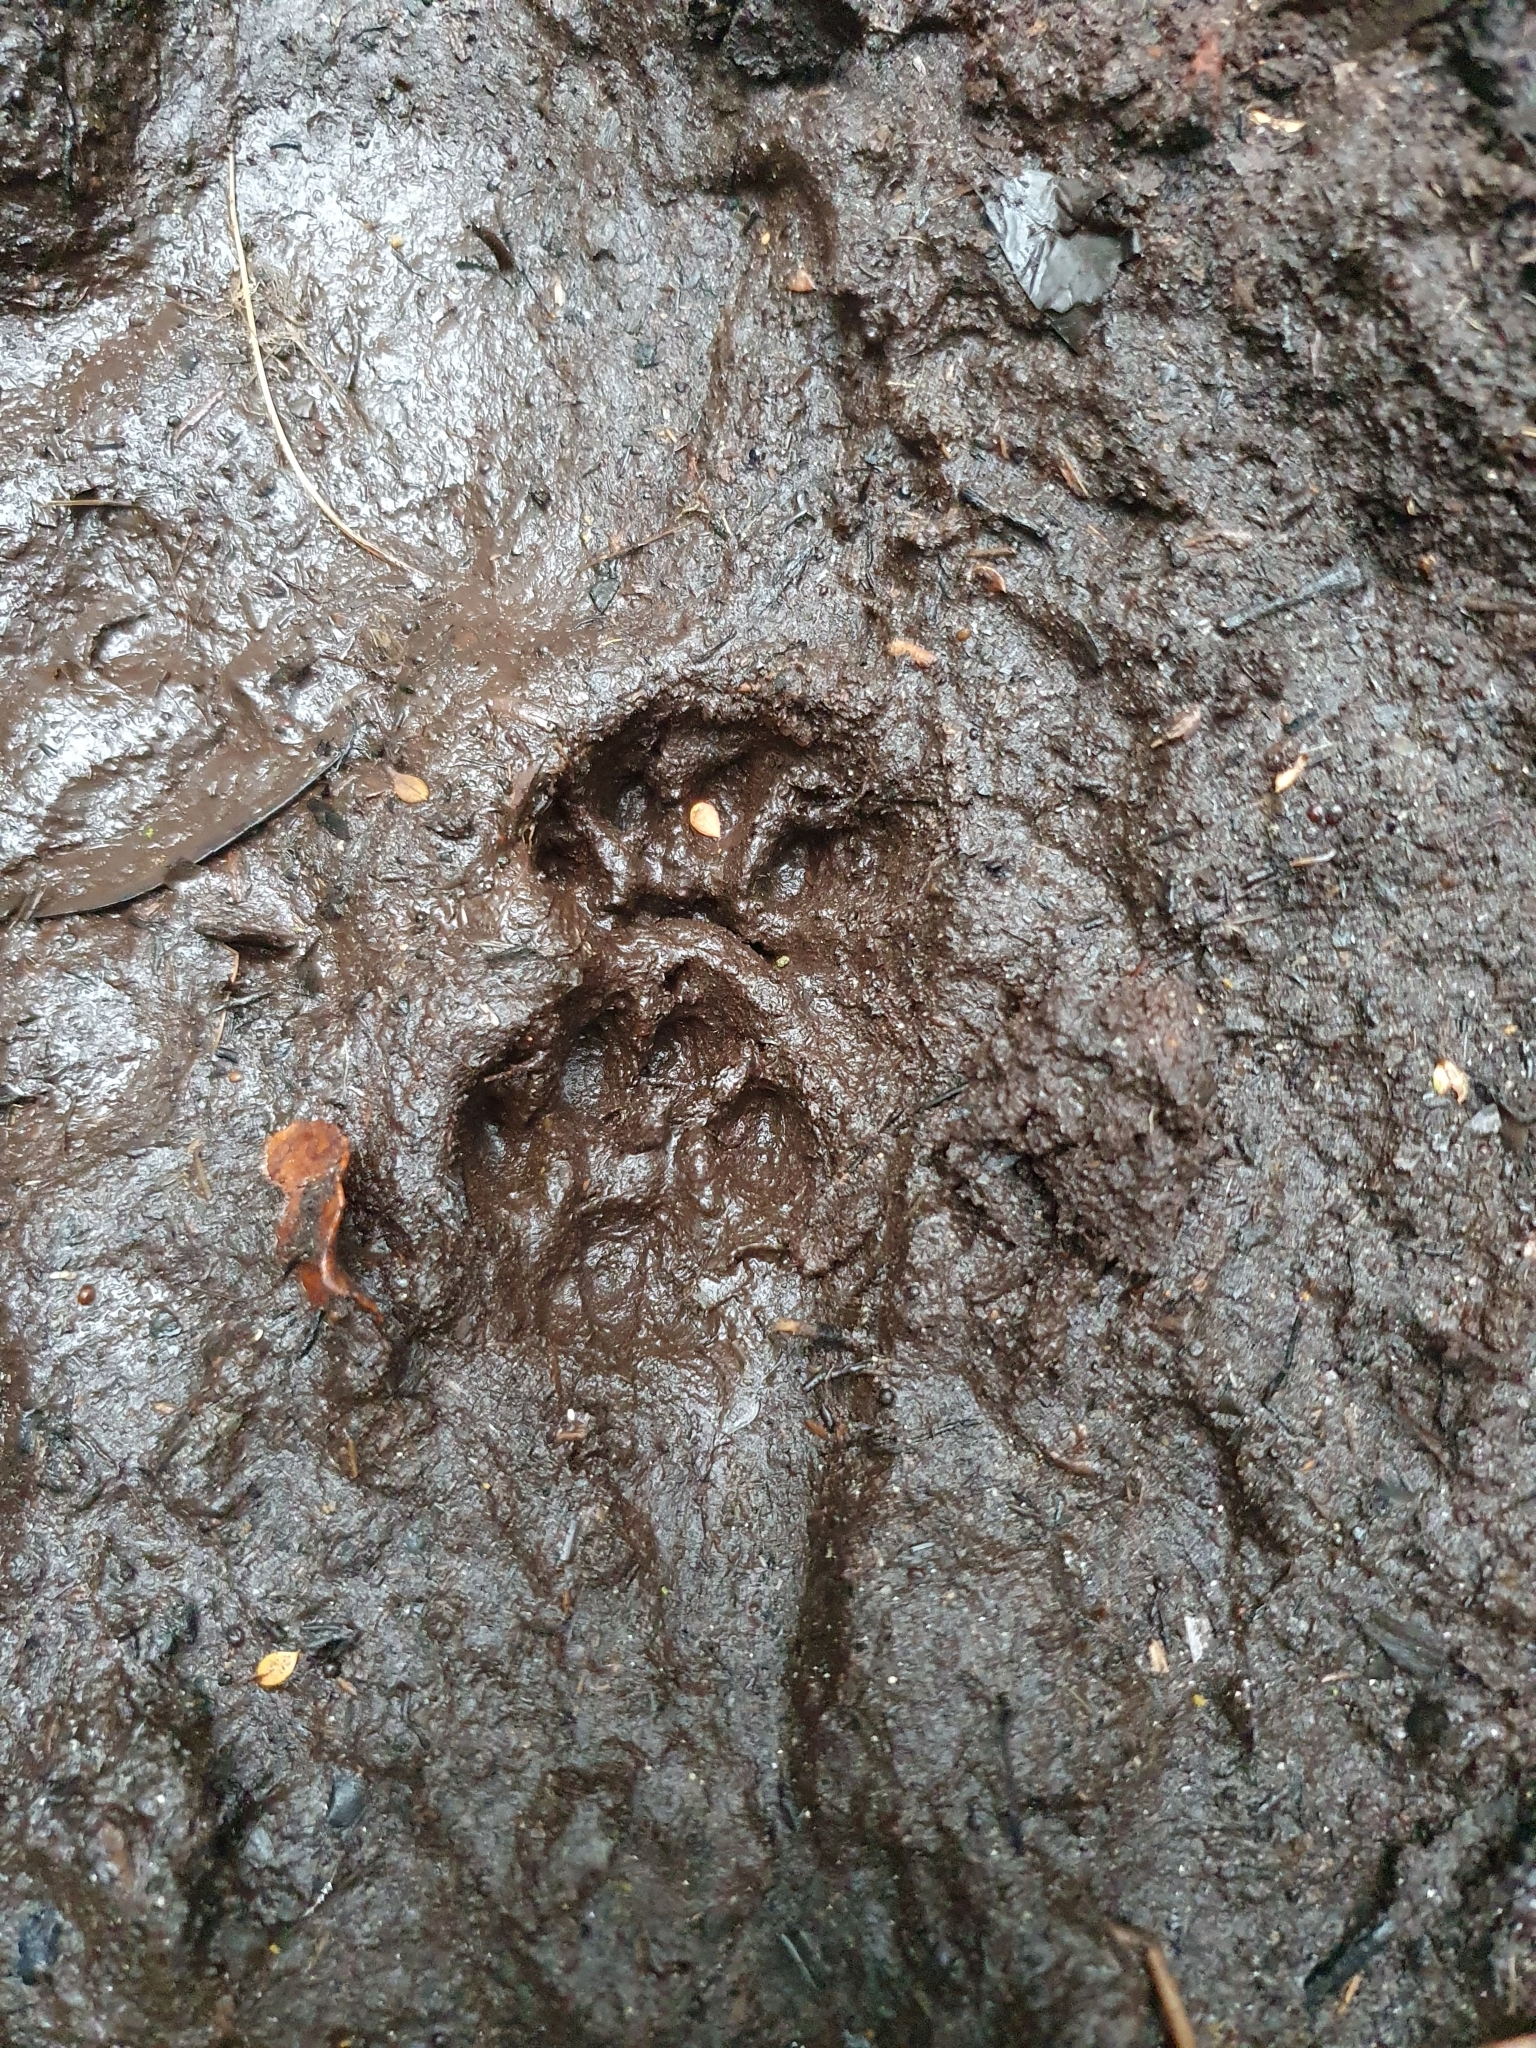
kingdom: Animalia
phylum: Chordata
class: Mammalia
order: Carnivora
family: Felidae
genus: Felis
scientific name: Felis catus
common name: Domestic cat
